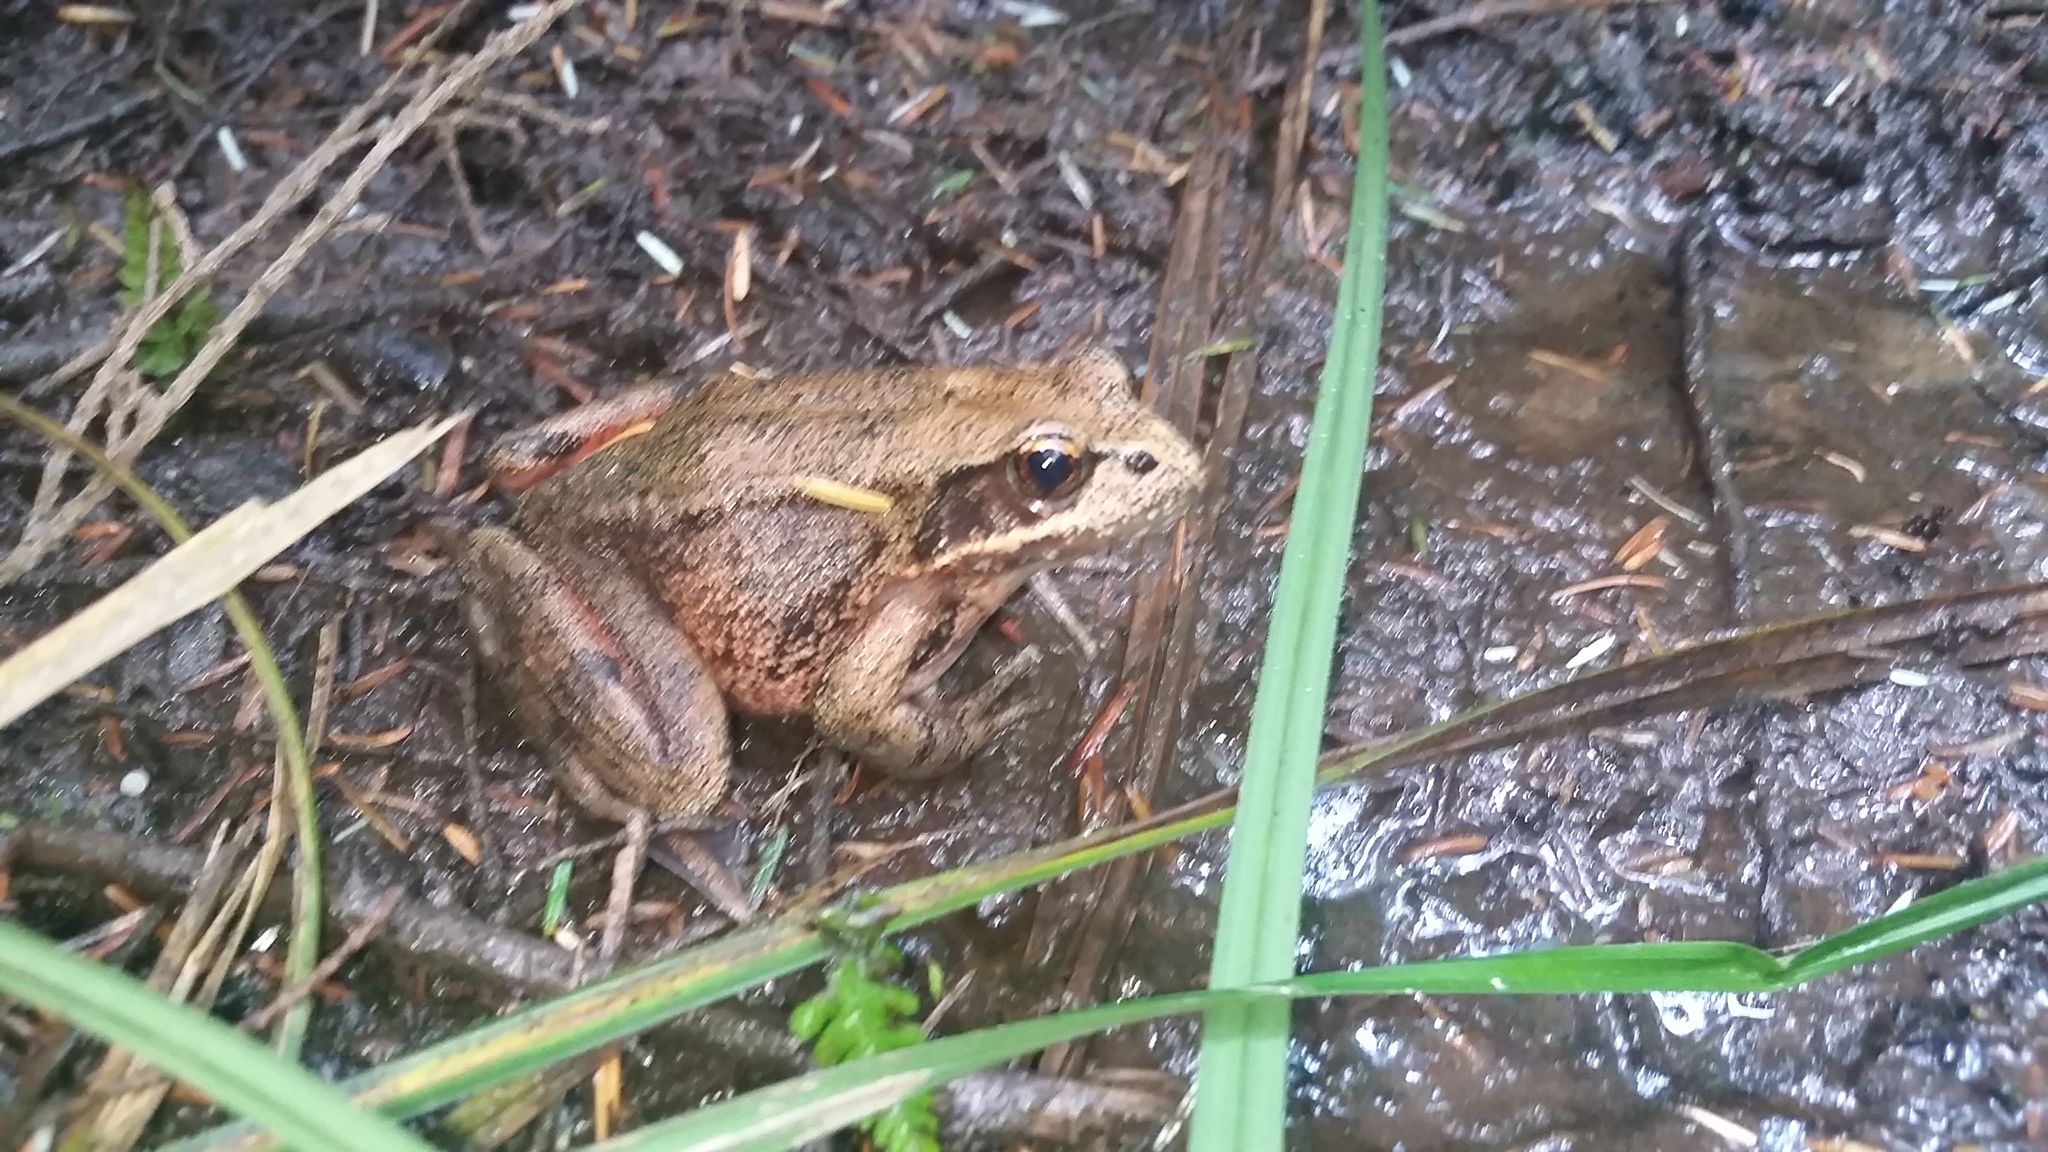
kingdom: Animalia
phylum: Chordata
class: Amphibia
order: Anura
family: Ranidae
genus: Rana
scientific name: Rana aurora
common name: Red-legged frog
